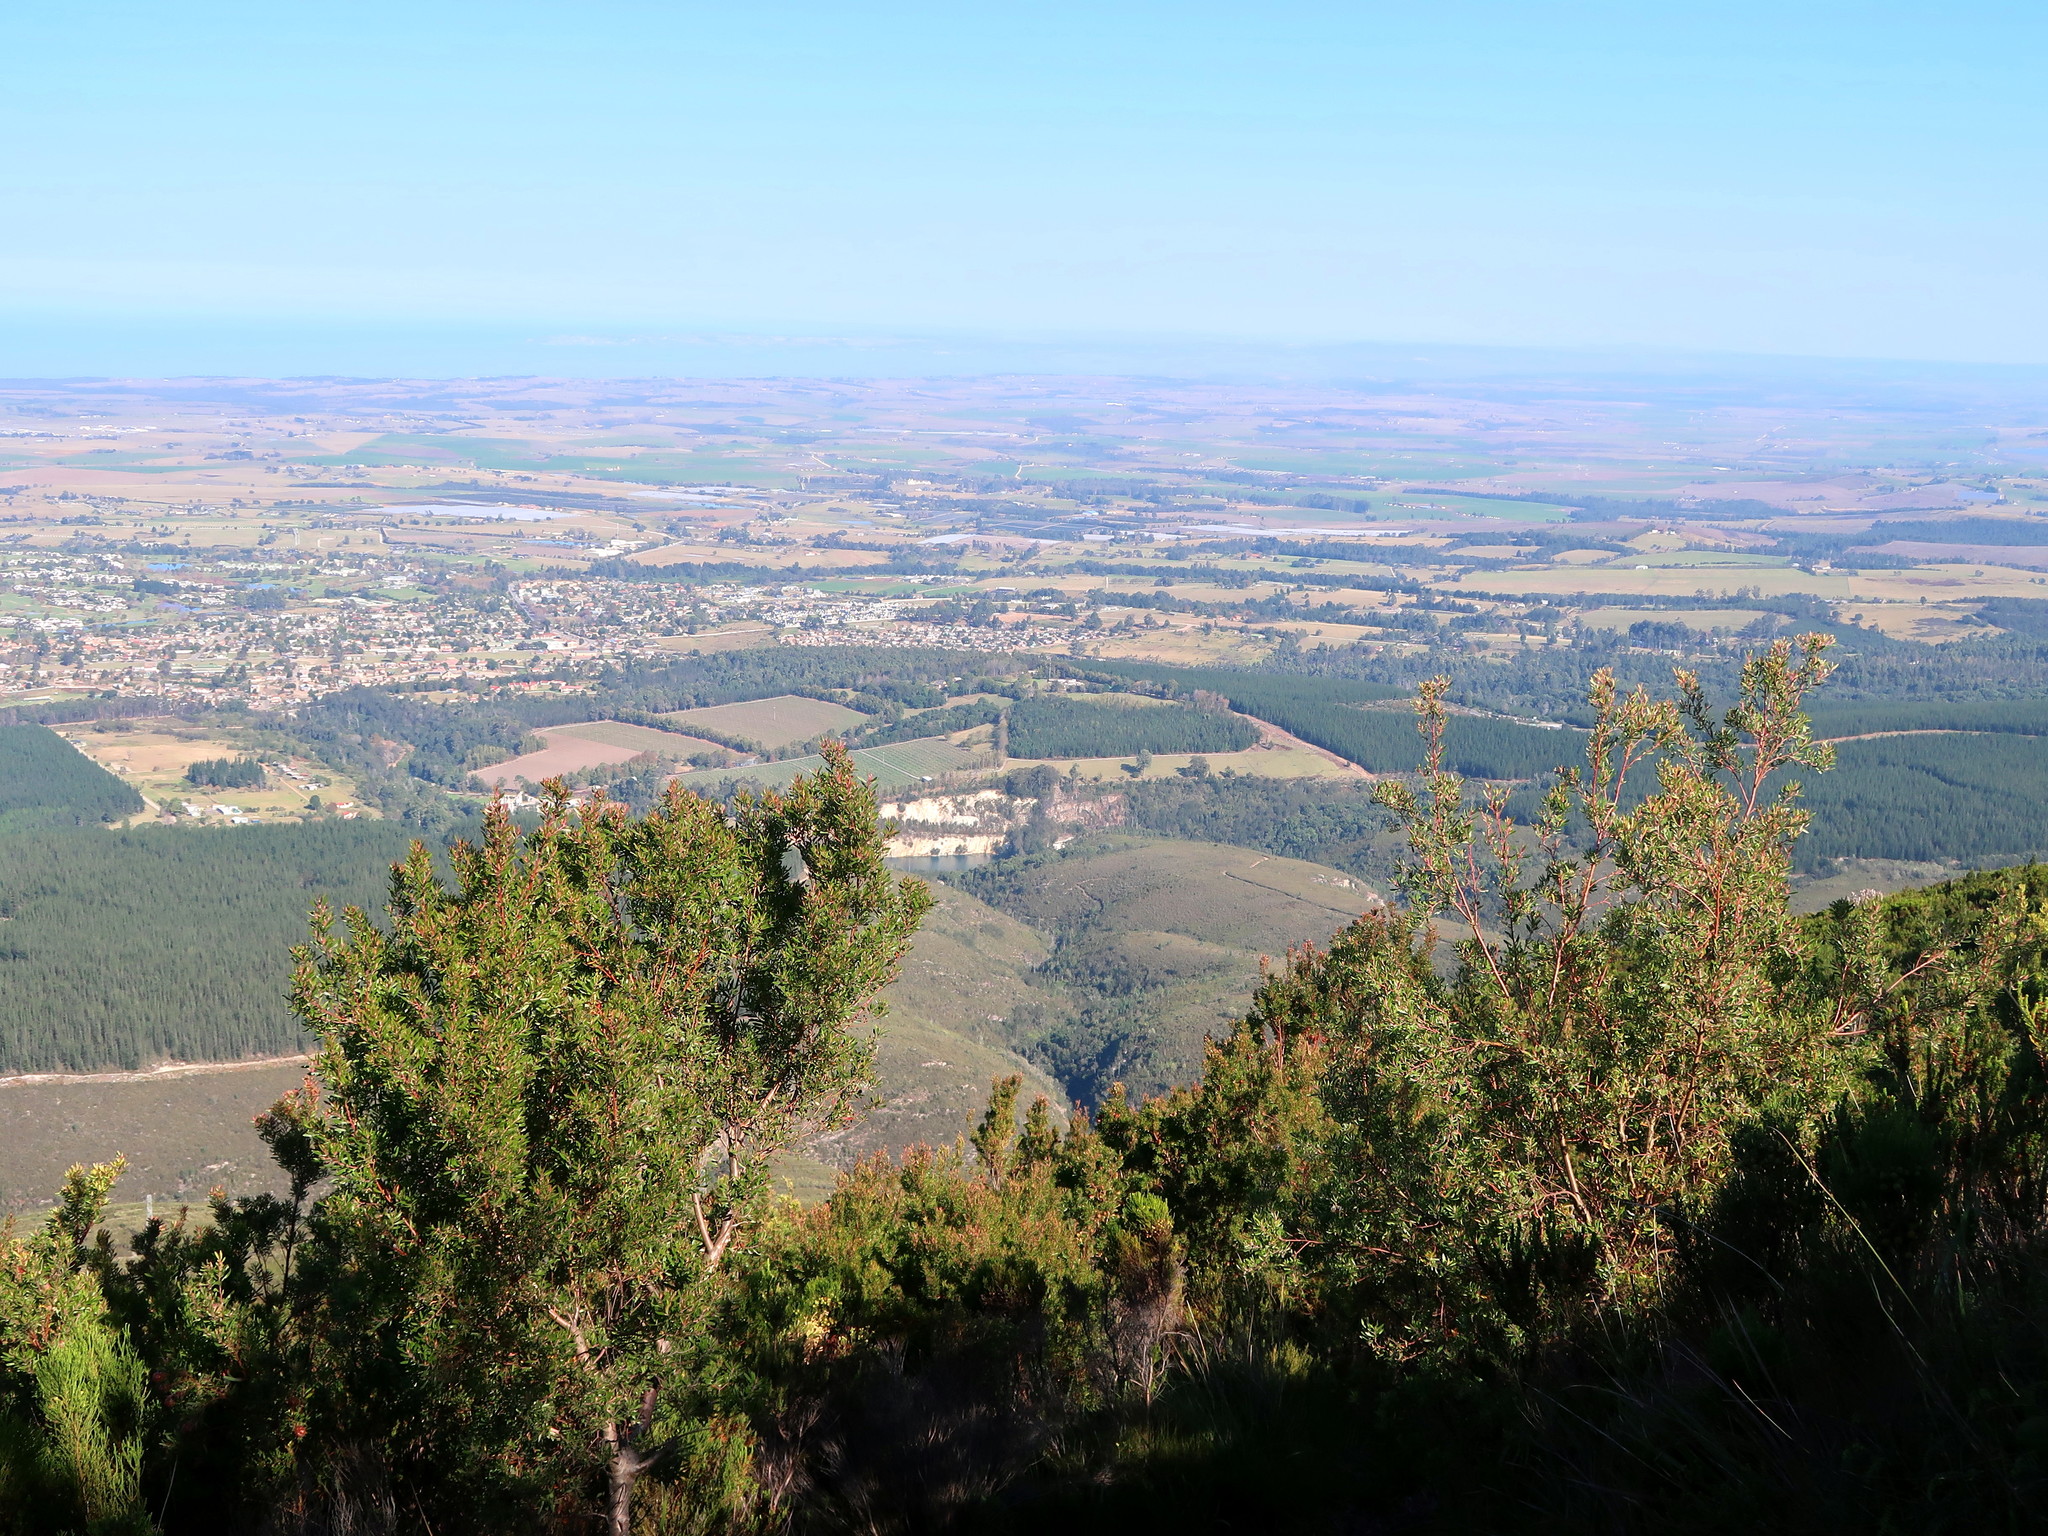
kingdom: Plantae
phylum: Tracheophyta
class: Magnoliopsida
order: Proteales
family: Proteaceae
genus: Leucadendron
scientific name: Leucadendron conicum
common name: Garden route conebush
